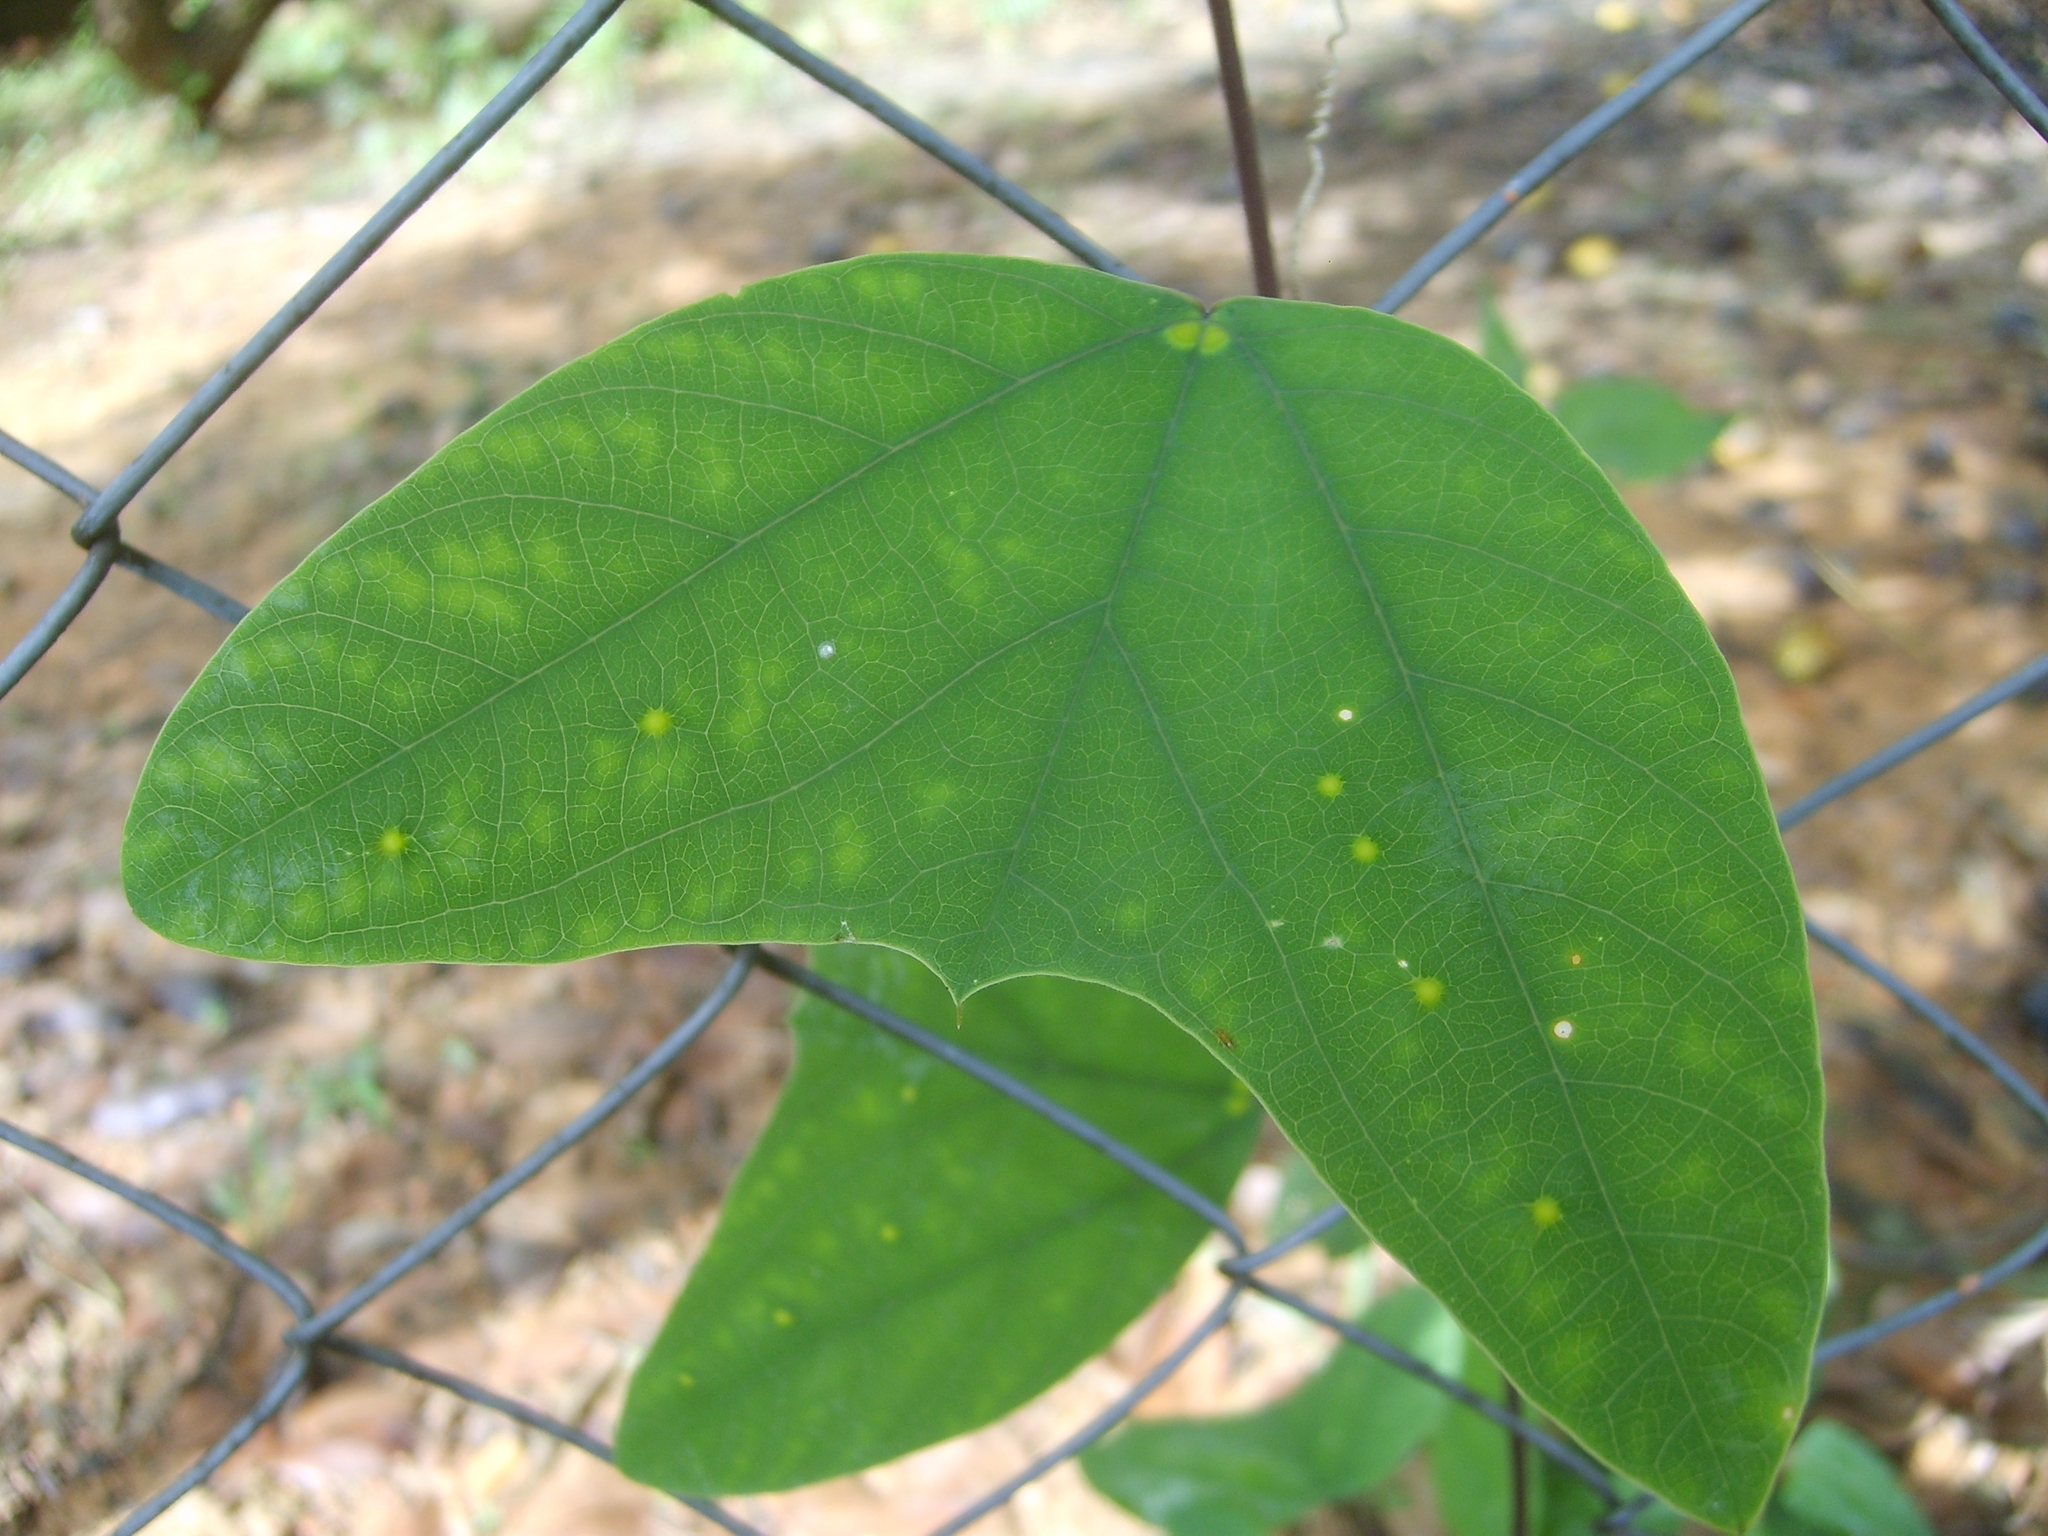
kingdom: Plantae
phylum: Tracheophyta
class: Magnoliopsida
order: Malpighiales
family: Passifloraceae
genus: Passiflora
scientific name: Passiflora pohlii
